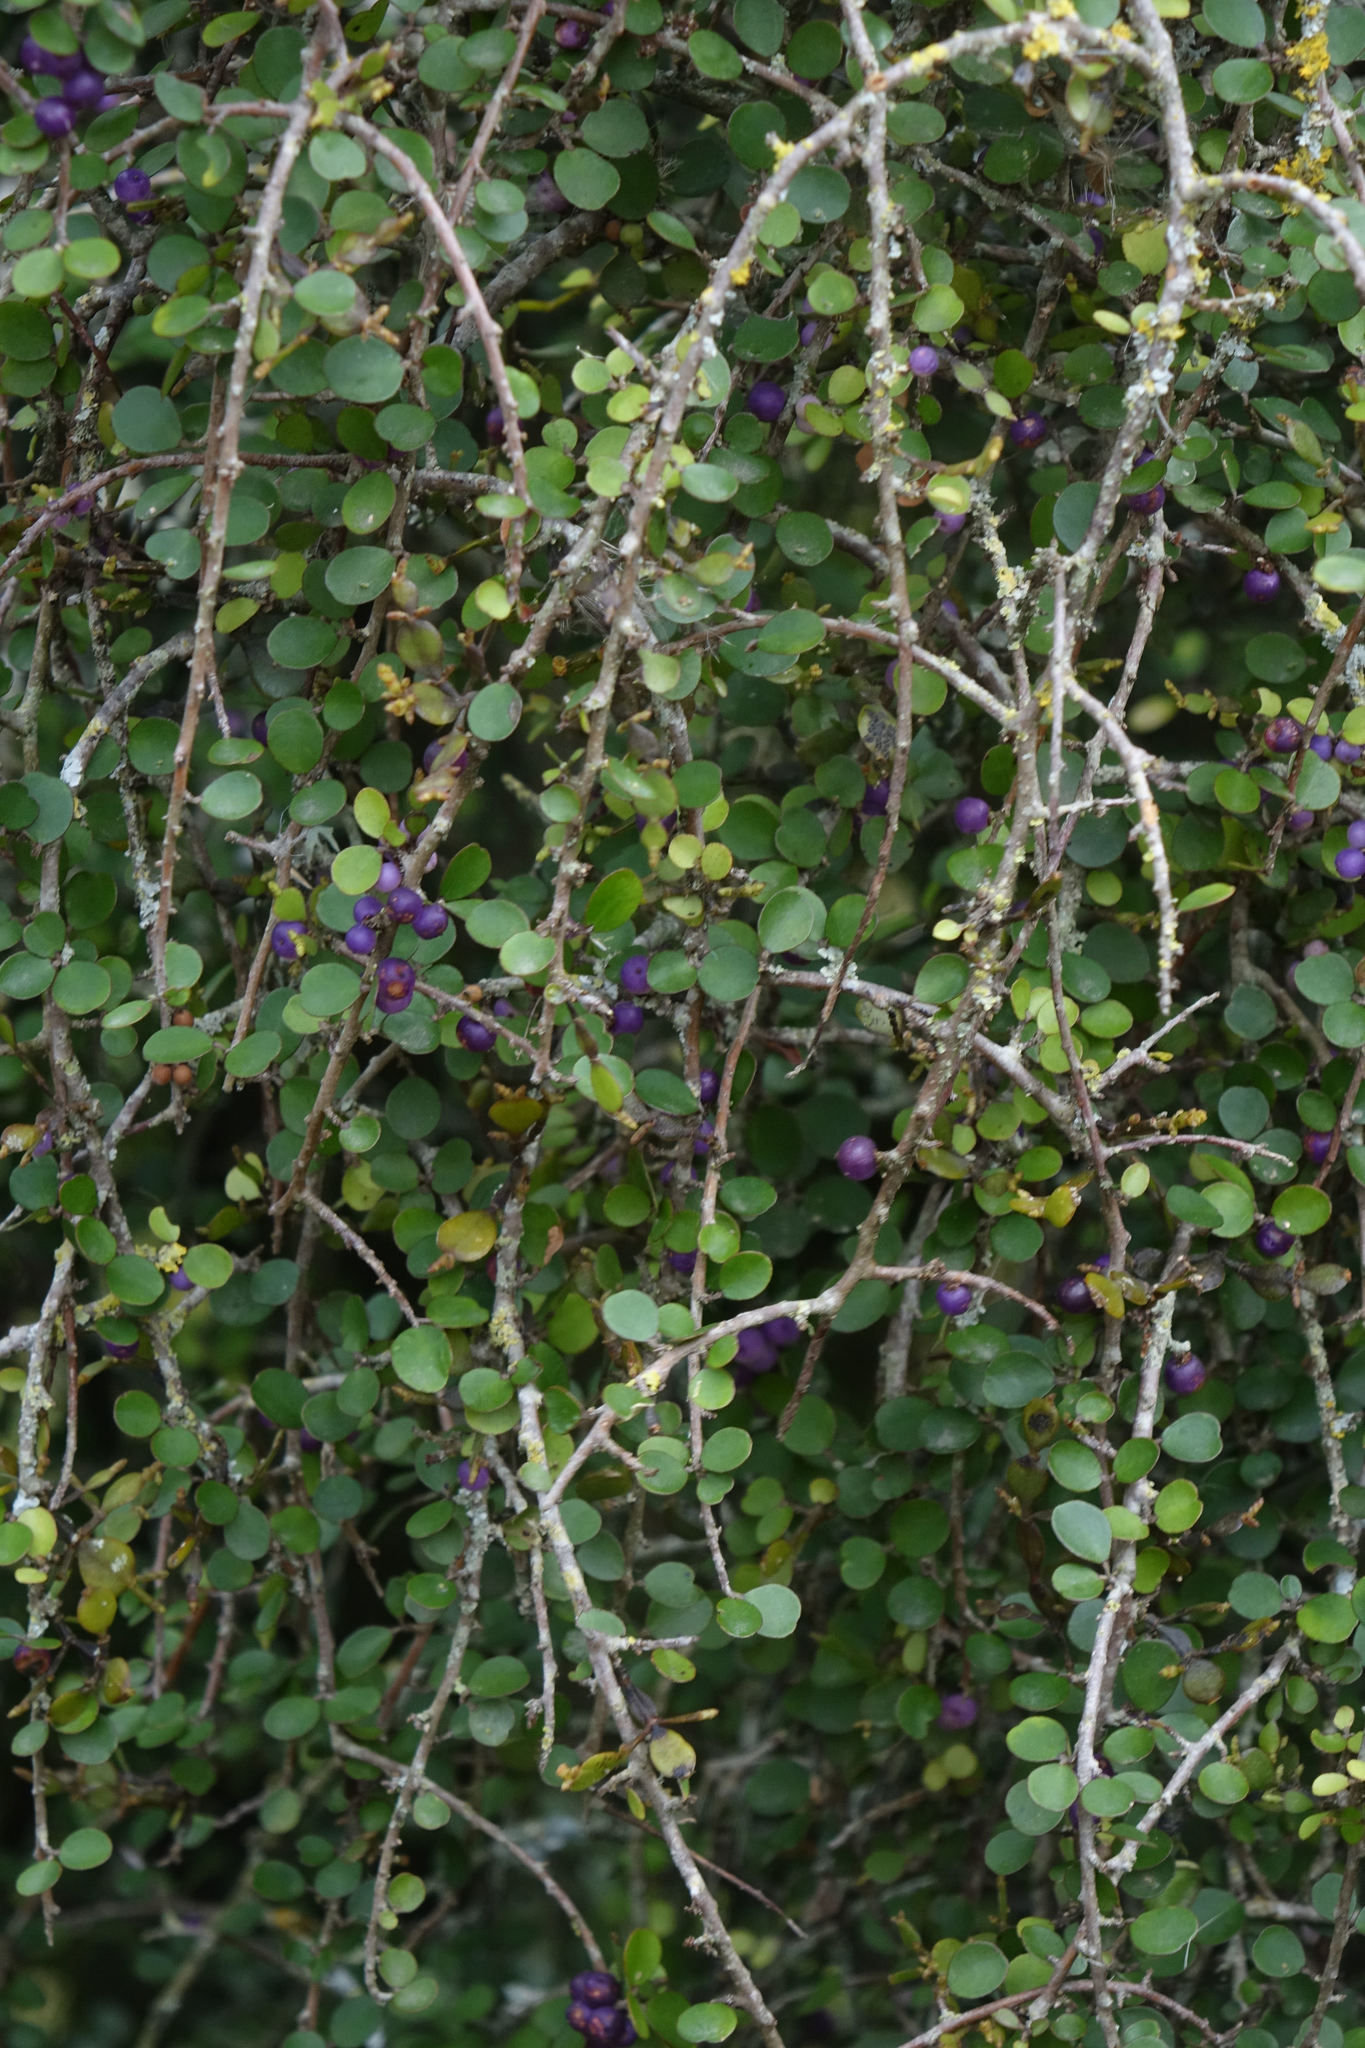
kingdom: Plantae
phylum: Tracheophyta
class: Magnoliopsida
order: Ericales
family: Primulaceae
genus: Myrsine
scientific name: Myrsine divaricata
